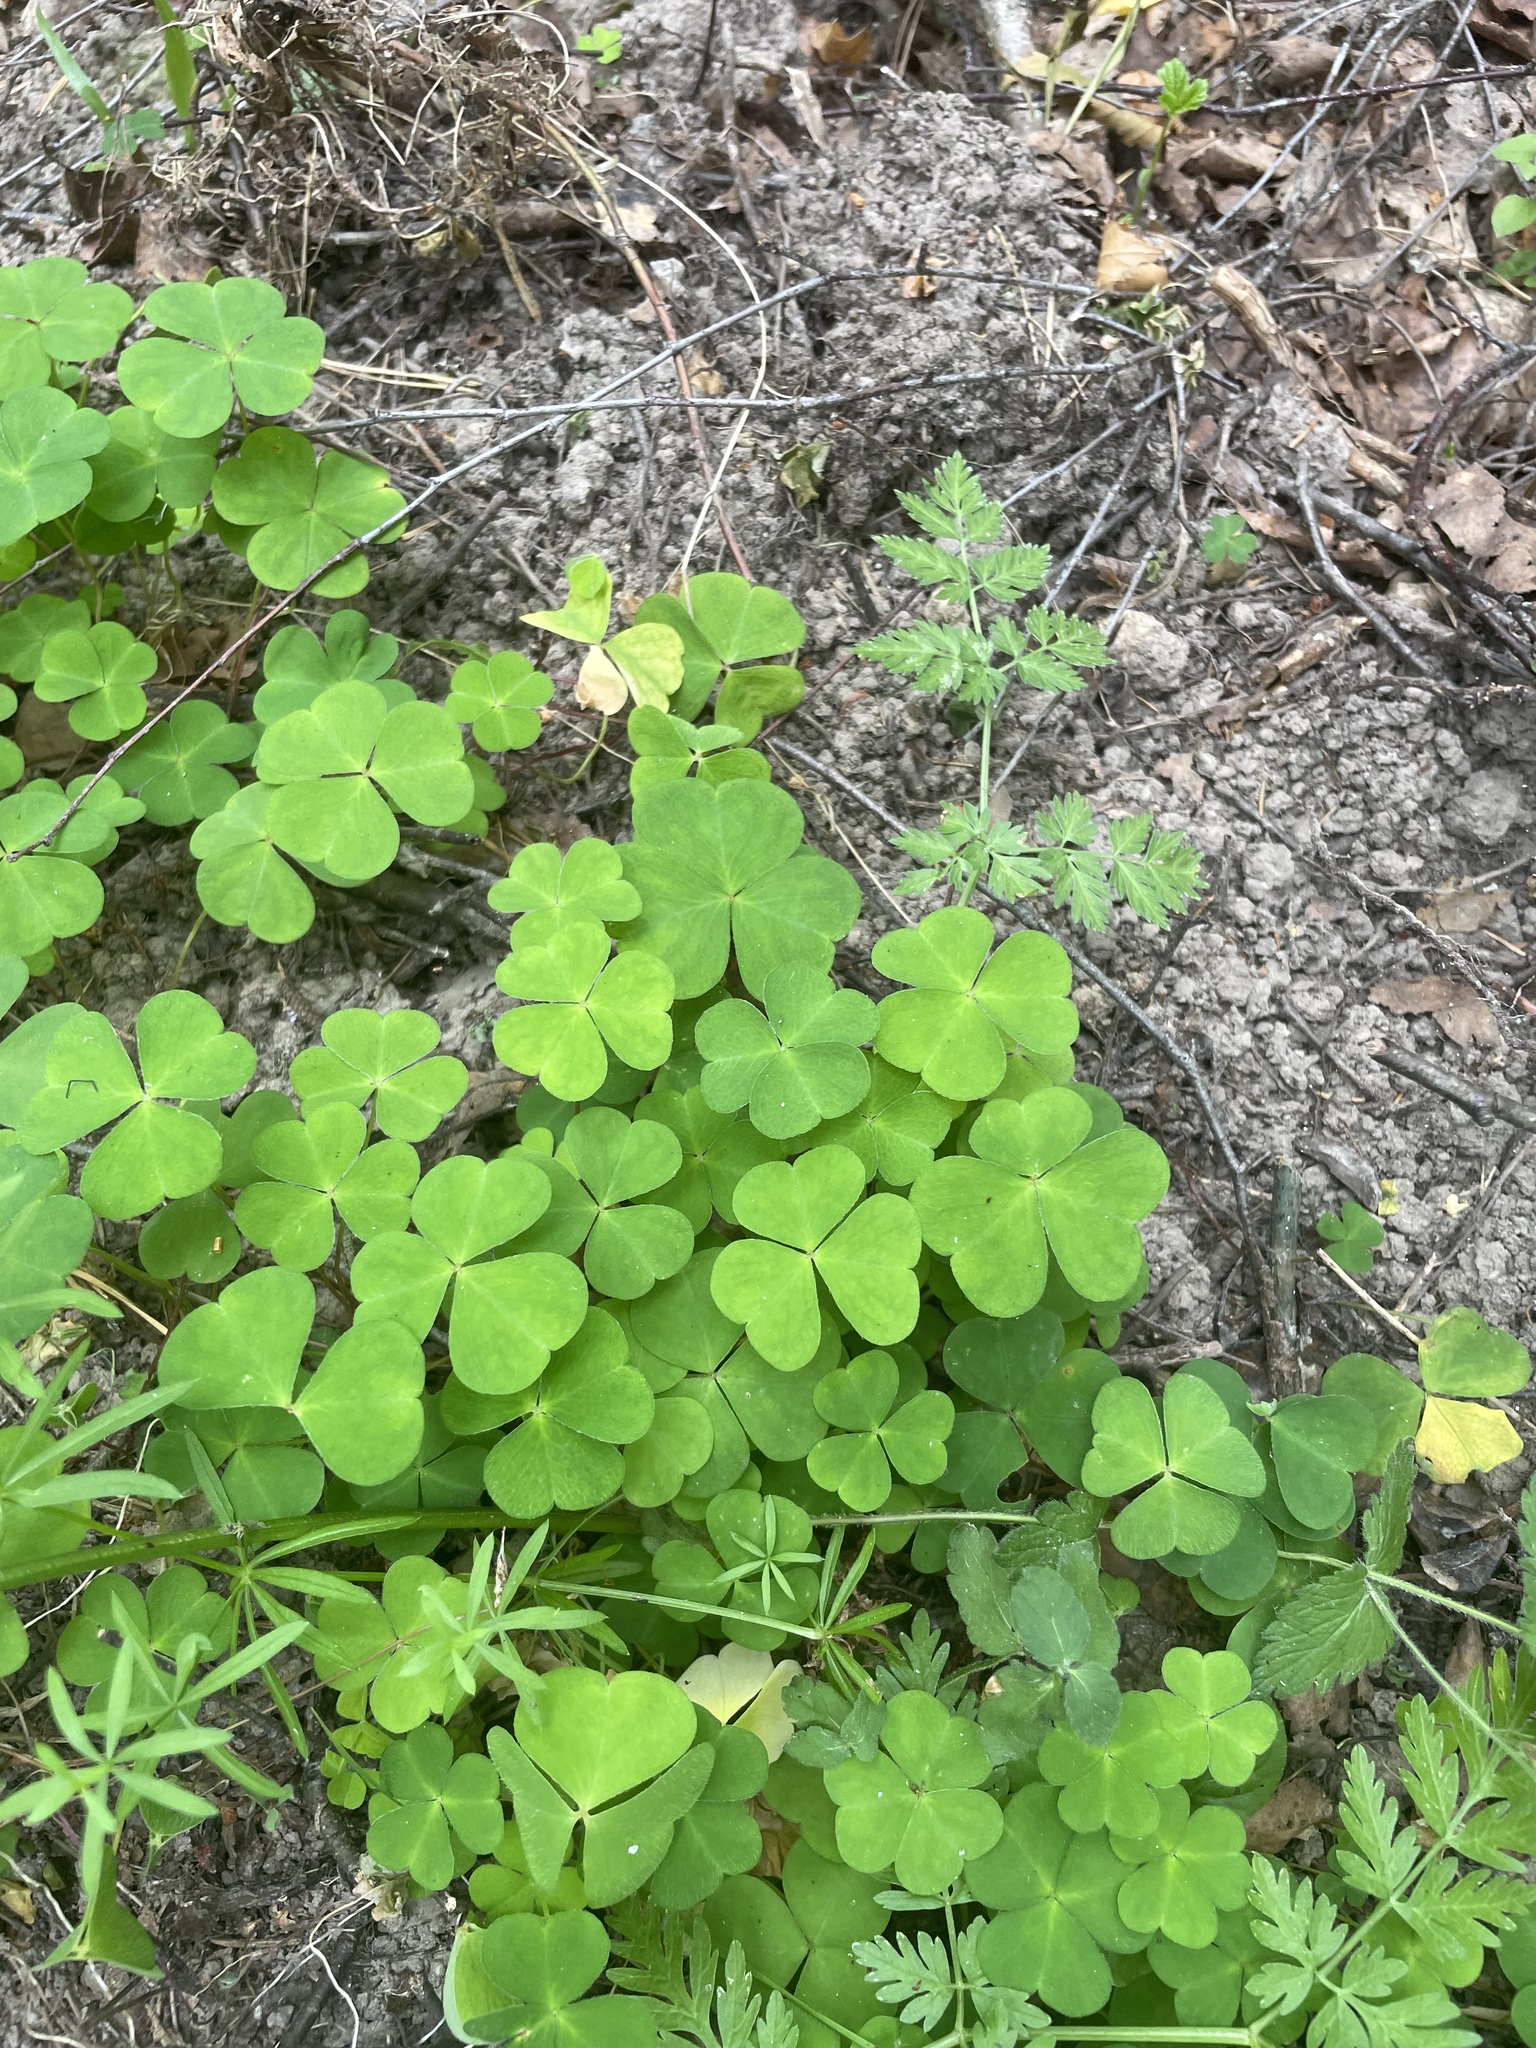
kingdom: Plantae
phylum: Tracheophyta
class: Magnoliopsida
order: Oxalidales
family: Oxalidaceae
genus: Oxalis
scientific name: Oxalis acetosella
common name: Wood-sorrel
